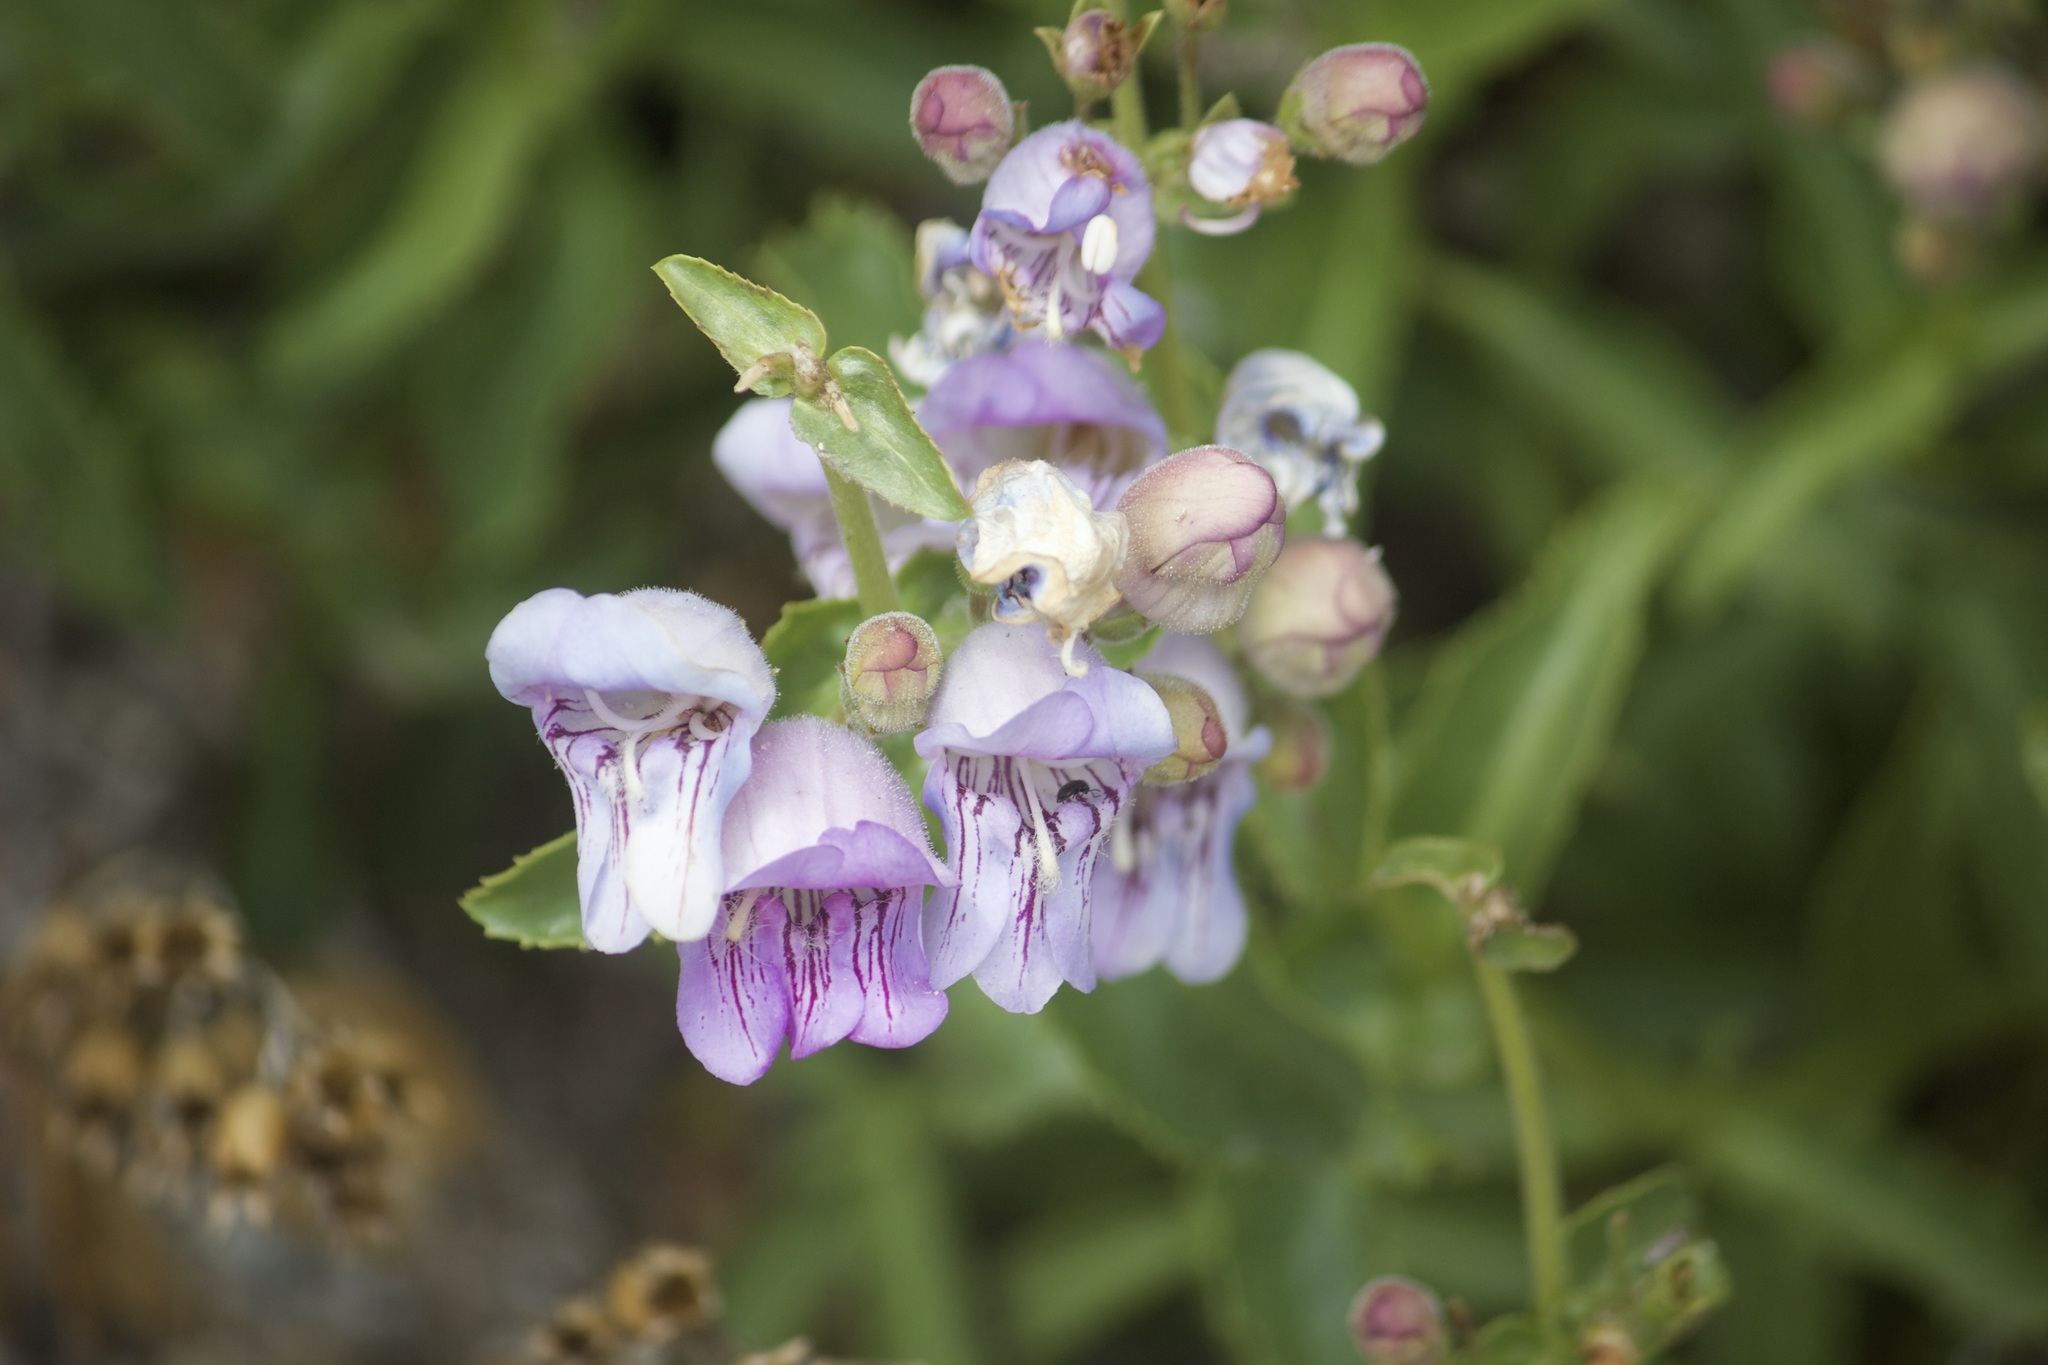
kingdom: Plantae
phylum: Tracheophyta
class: Magnoliopsida
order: Lamiales
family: Plantaginaceae
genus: Penstemon
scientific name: Penstemon grinnellii
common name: Grinnell's beardtongue
